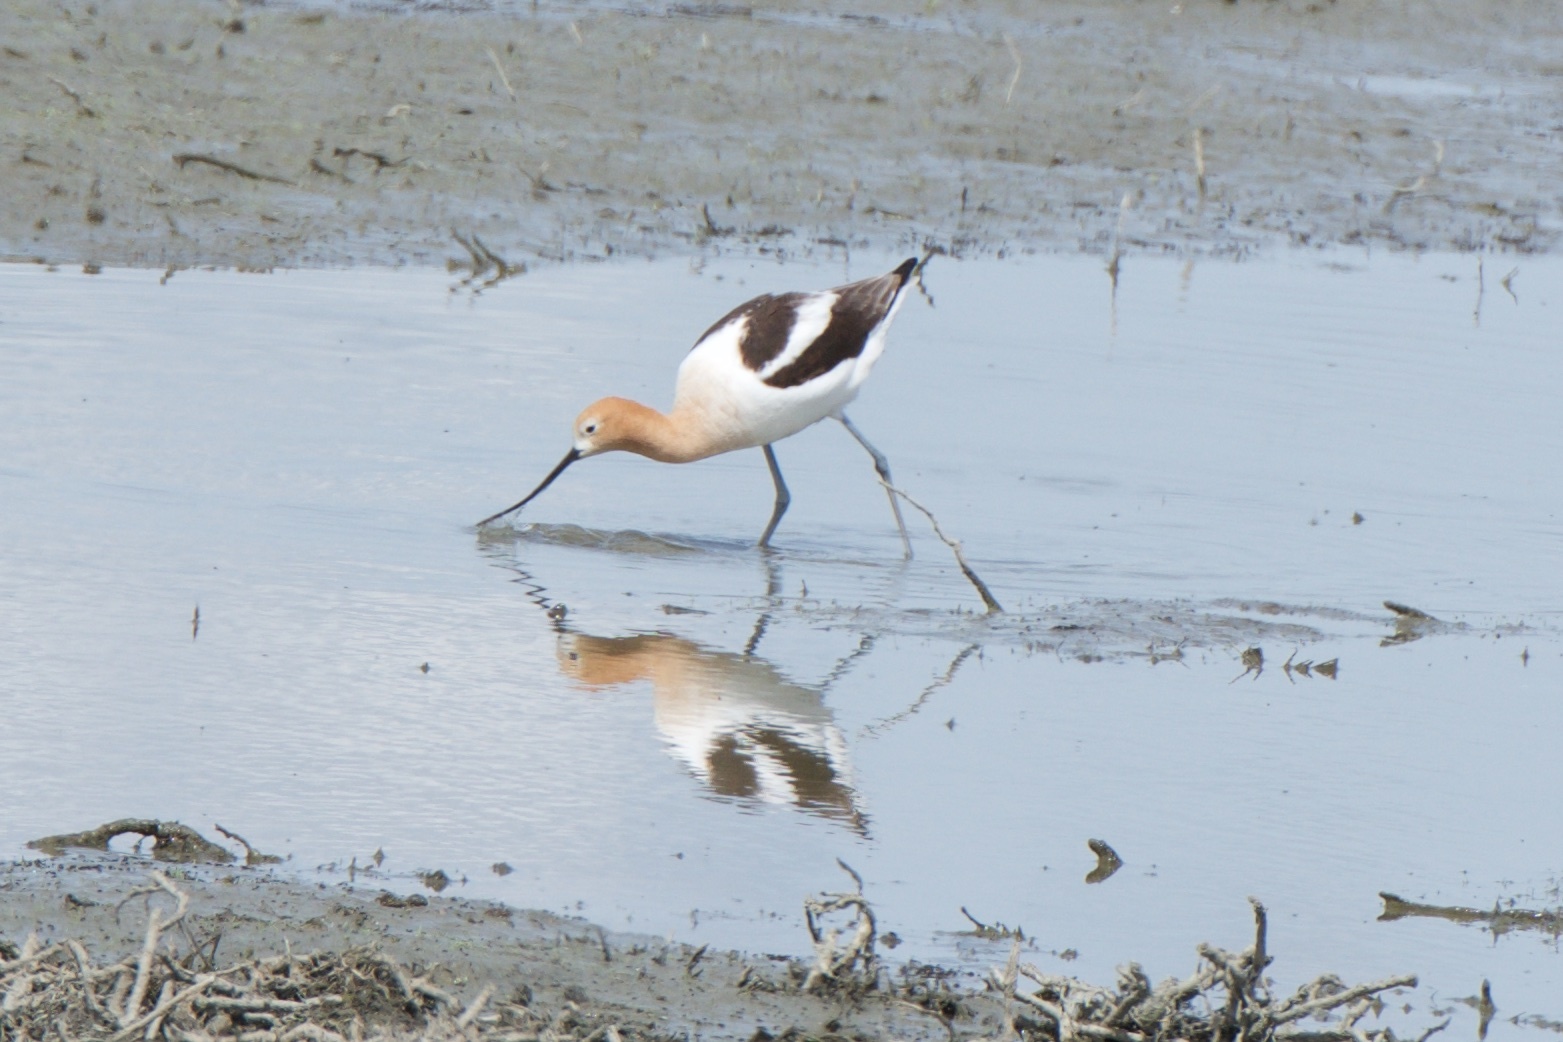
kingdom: Animalia
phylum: Chordata
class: Aves
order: Charadriiformes
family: Recurvirostridae
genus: Recurvirostra
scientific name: Recurvirostra americana
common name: American avocet
